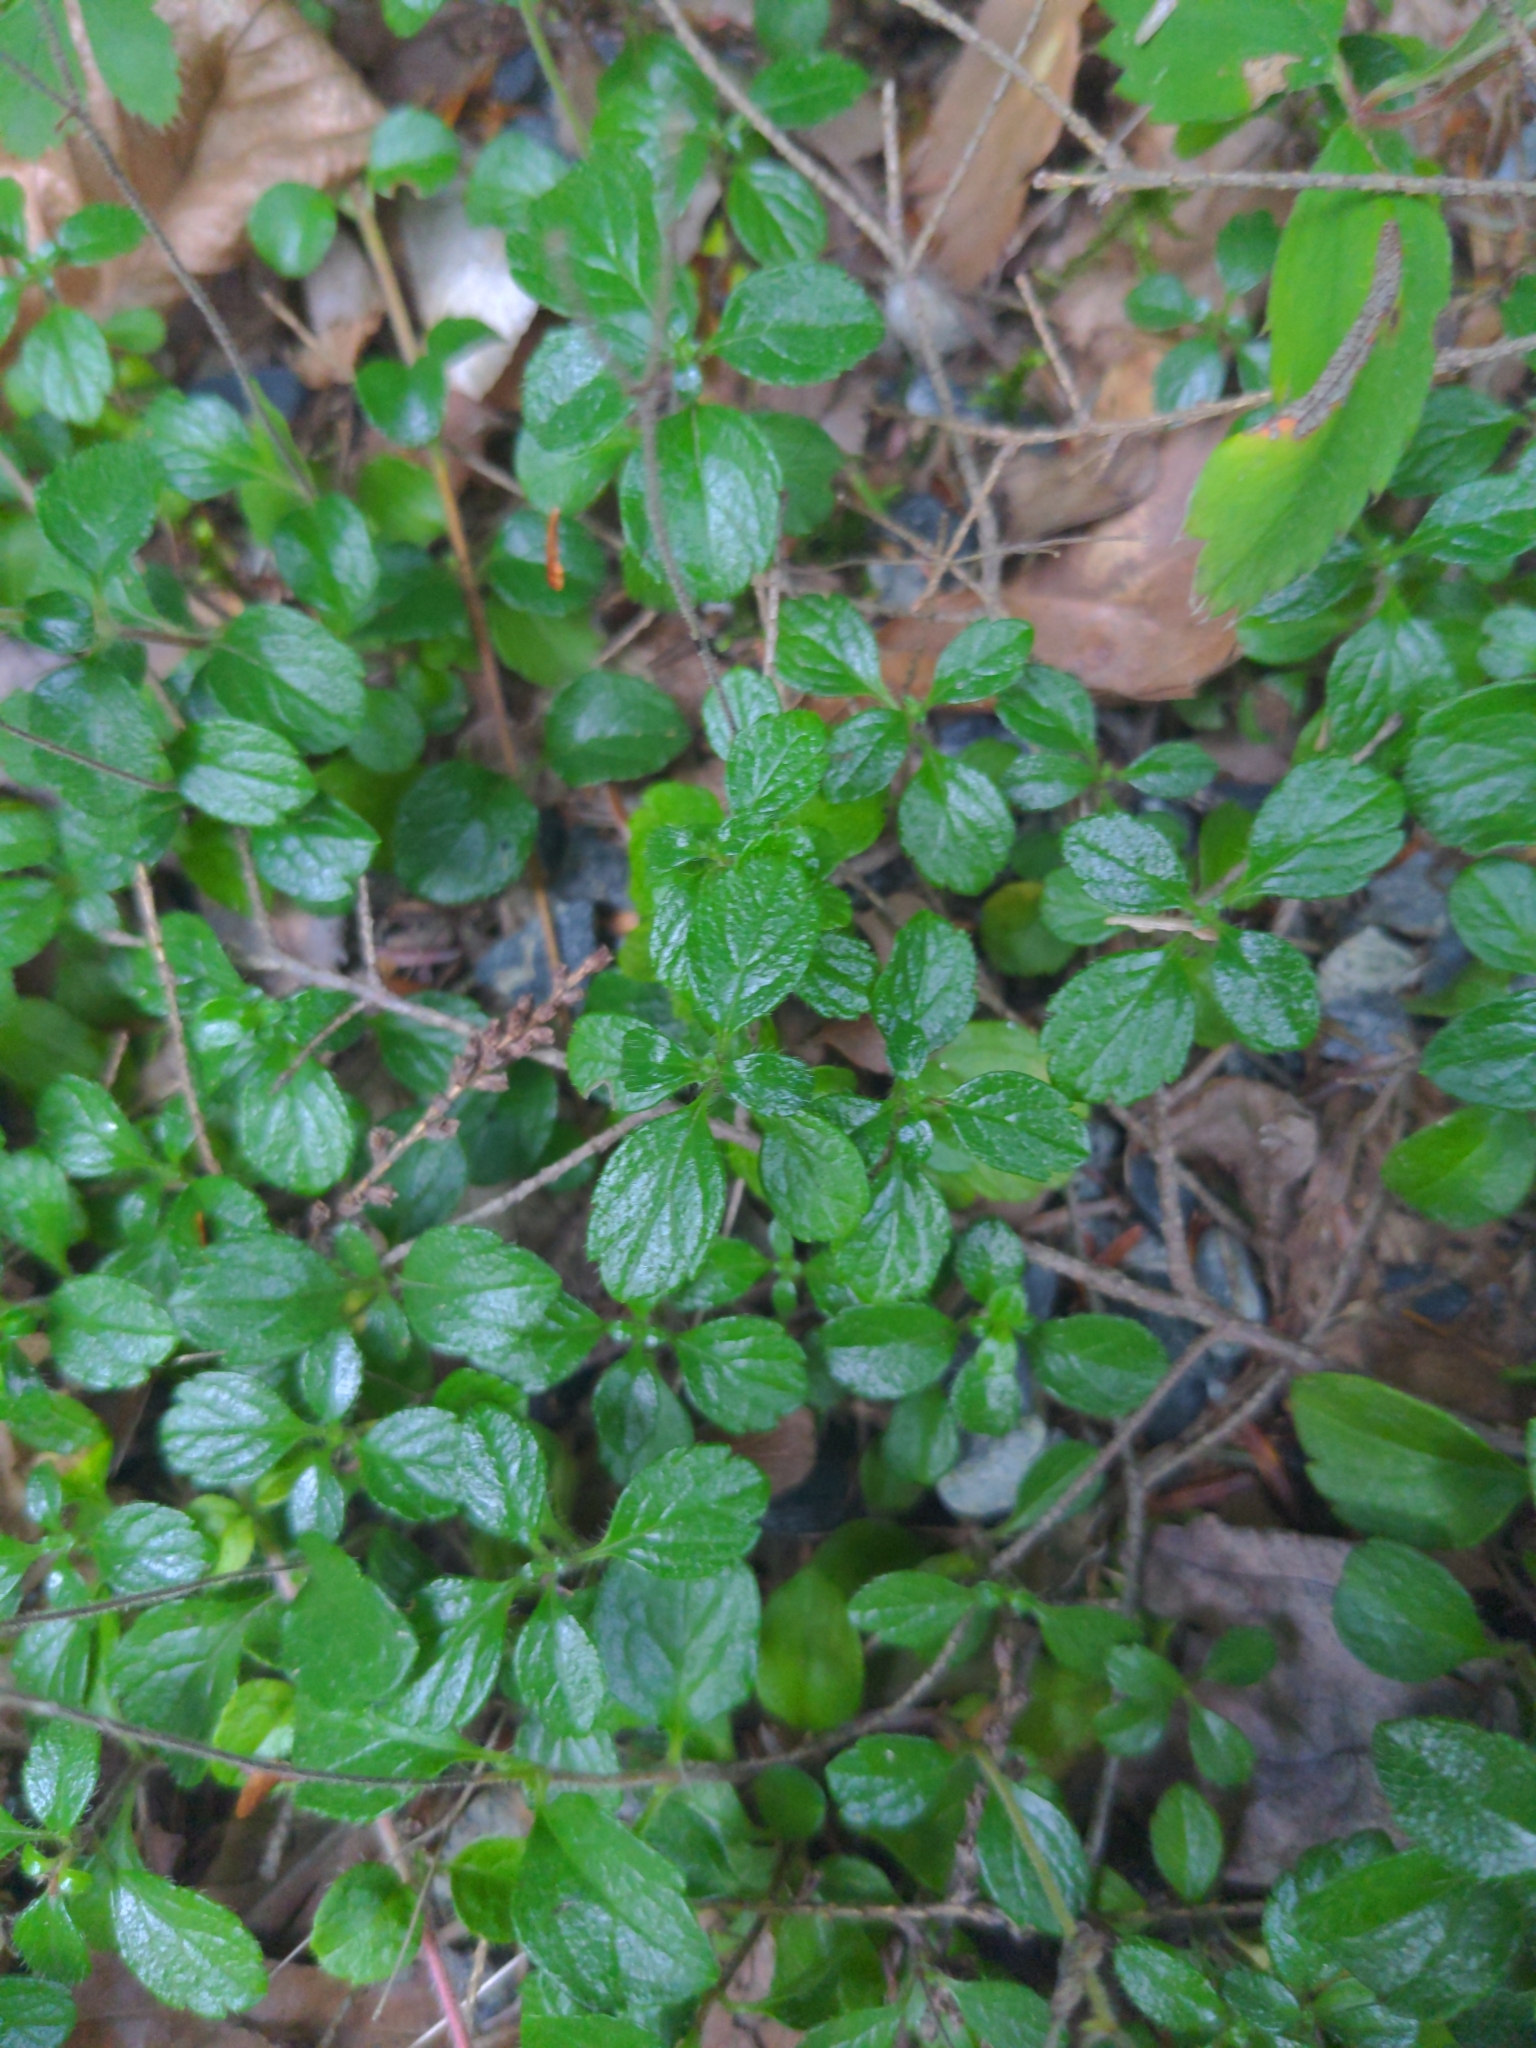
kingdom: Plantae
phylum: Tracheophyta
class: Magnoliopsida
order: Dipsacales
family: Caprifoliaceae
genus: Linnaea
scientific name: Linnaea borealis
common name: Twinflower
